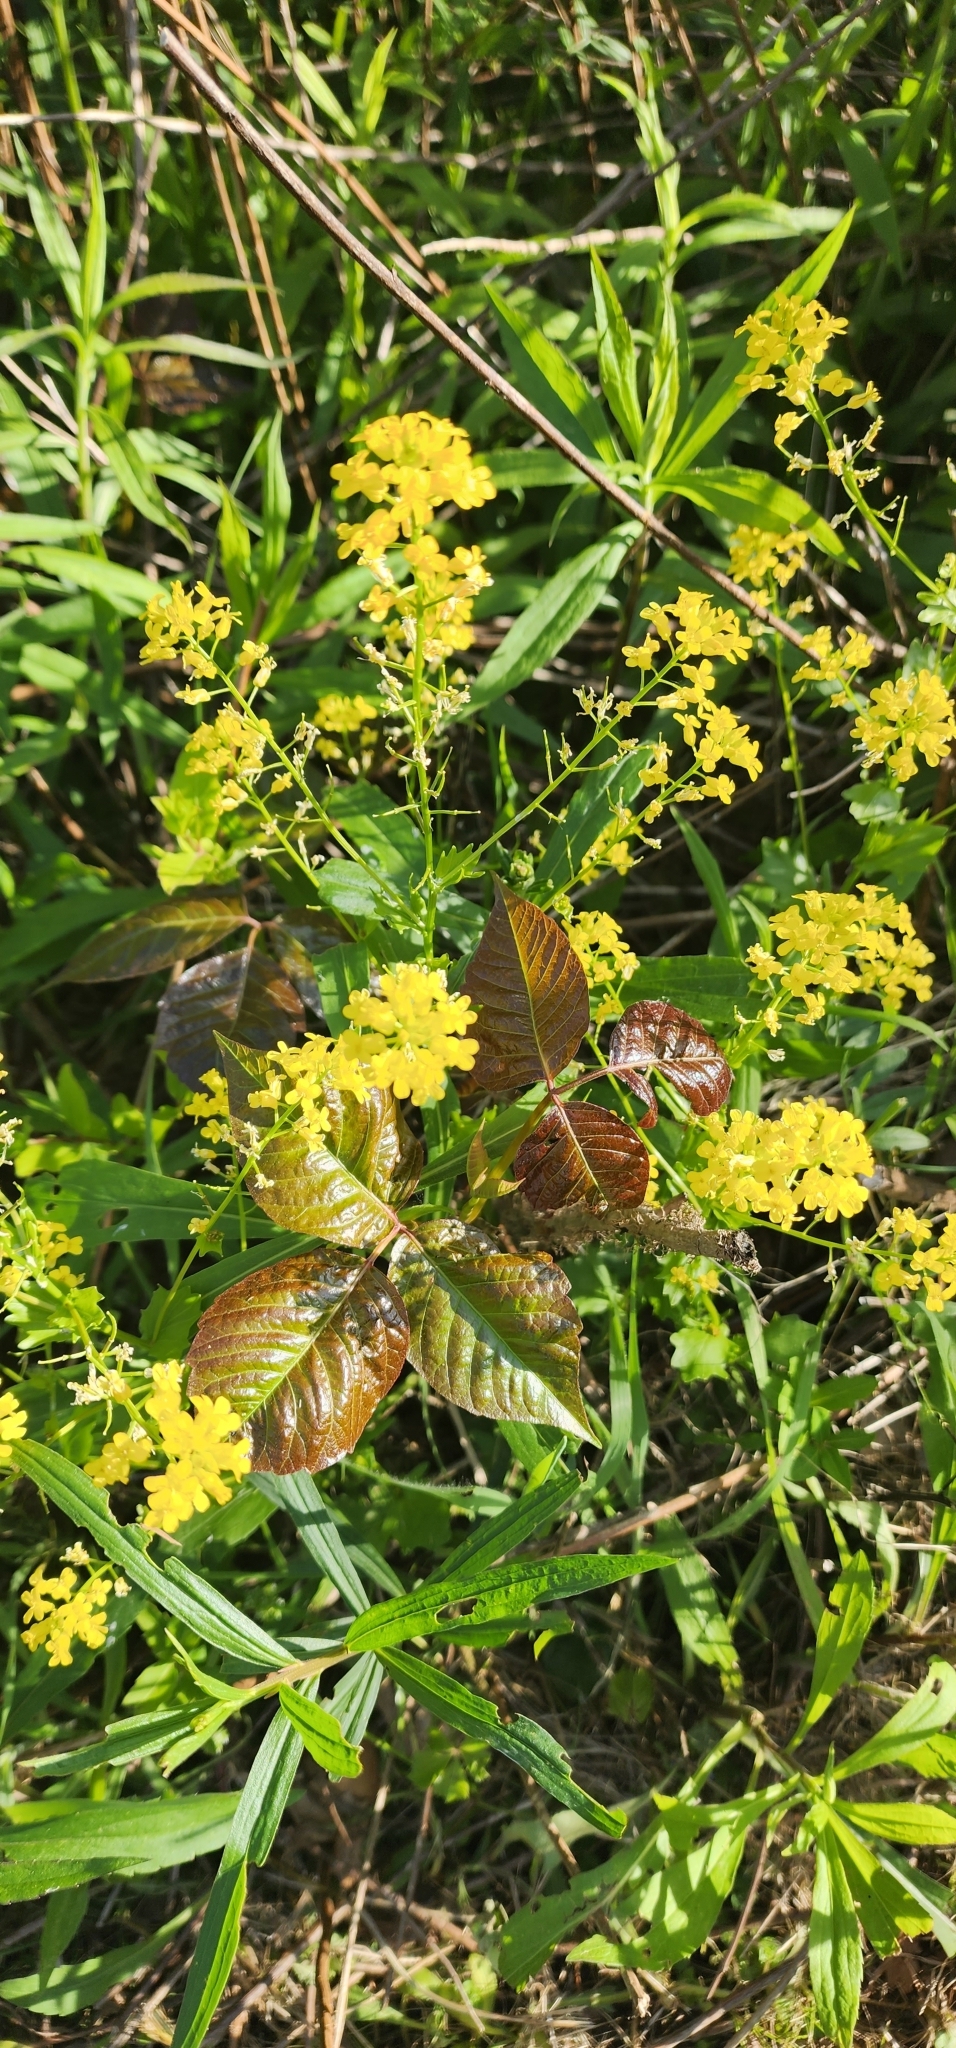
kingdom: Plantae
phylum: Tracheophyta
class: Magnoliopsida
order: Sapindales
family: Anacardiaceae
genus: Toxicodendron
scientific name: Toxicodendron radicans
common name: Poison ivy
